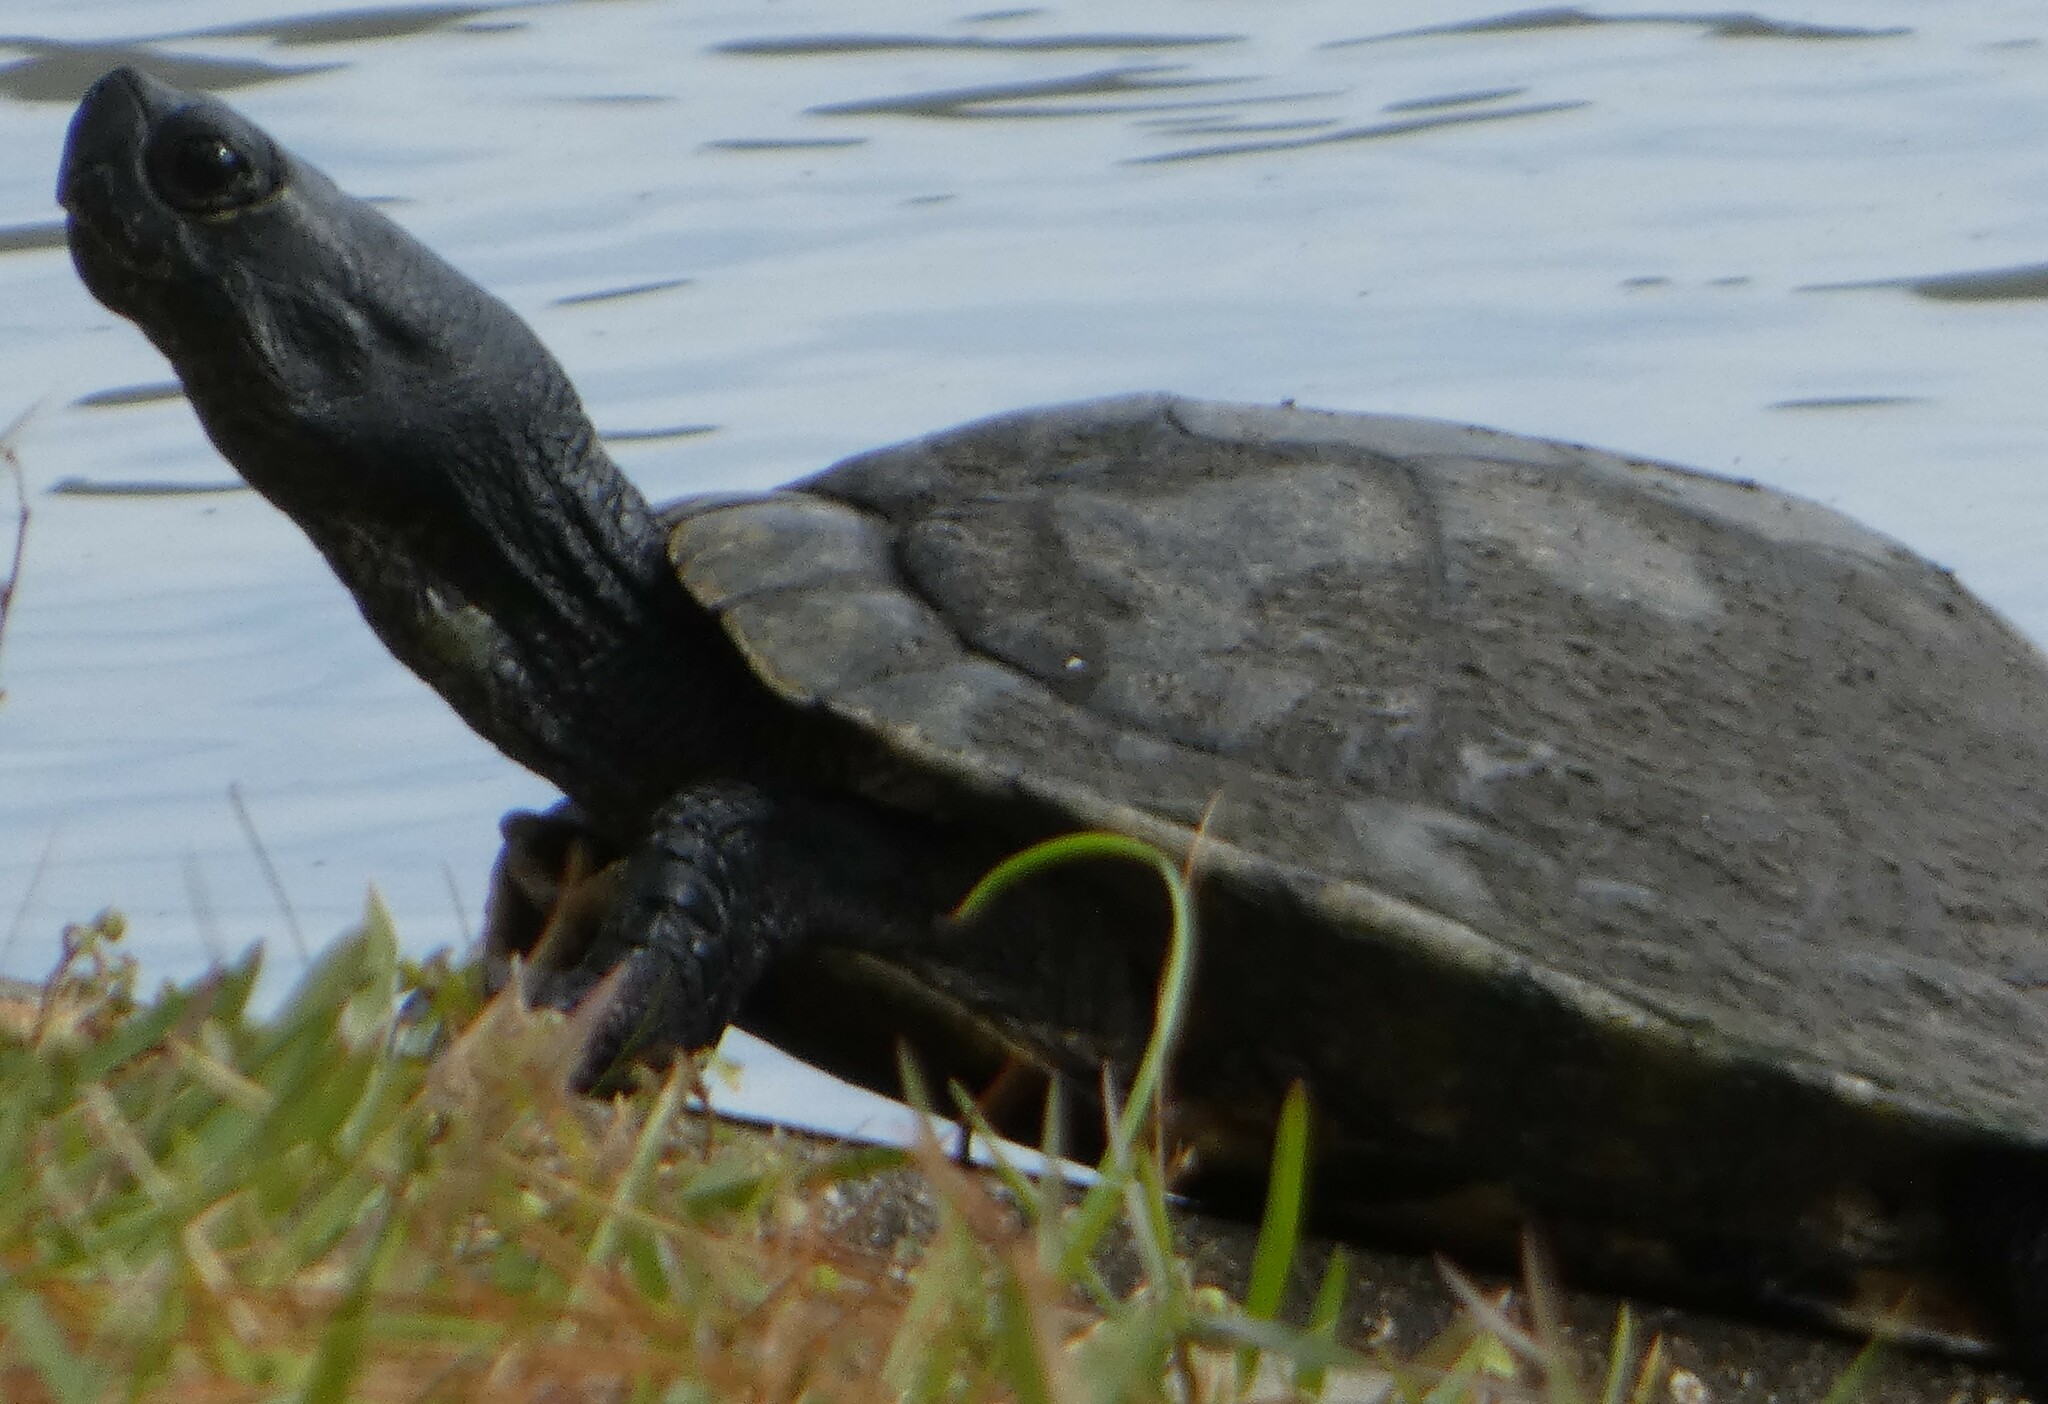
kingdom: Animalia
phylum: Chordata
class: Testudines
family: Emydidae
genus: Trachemys
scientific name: Trachemys scripta
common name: Slider
